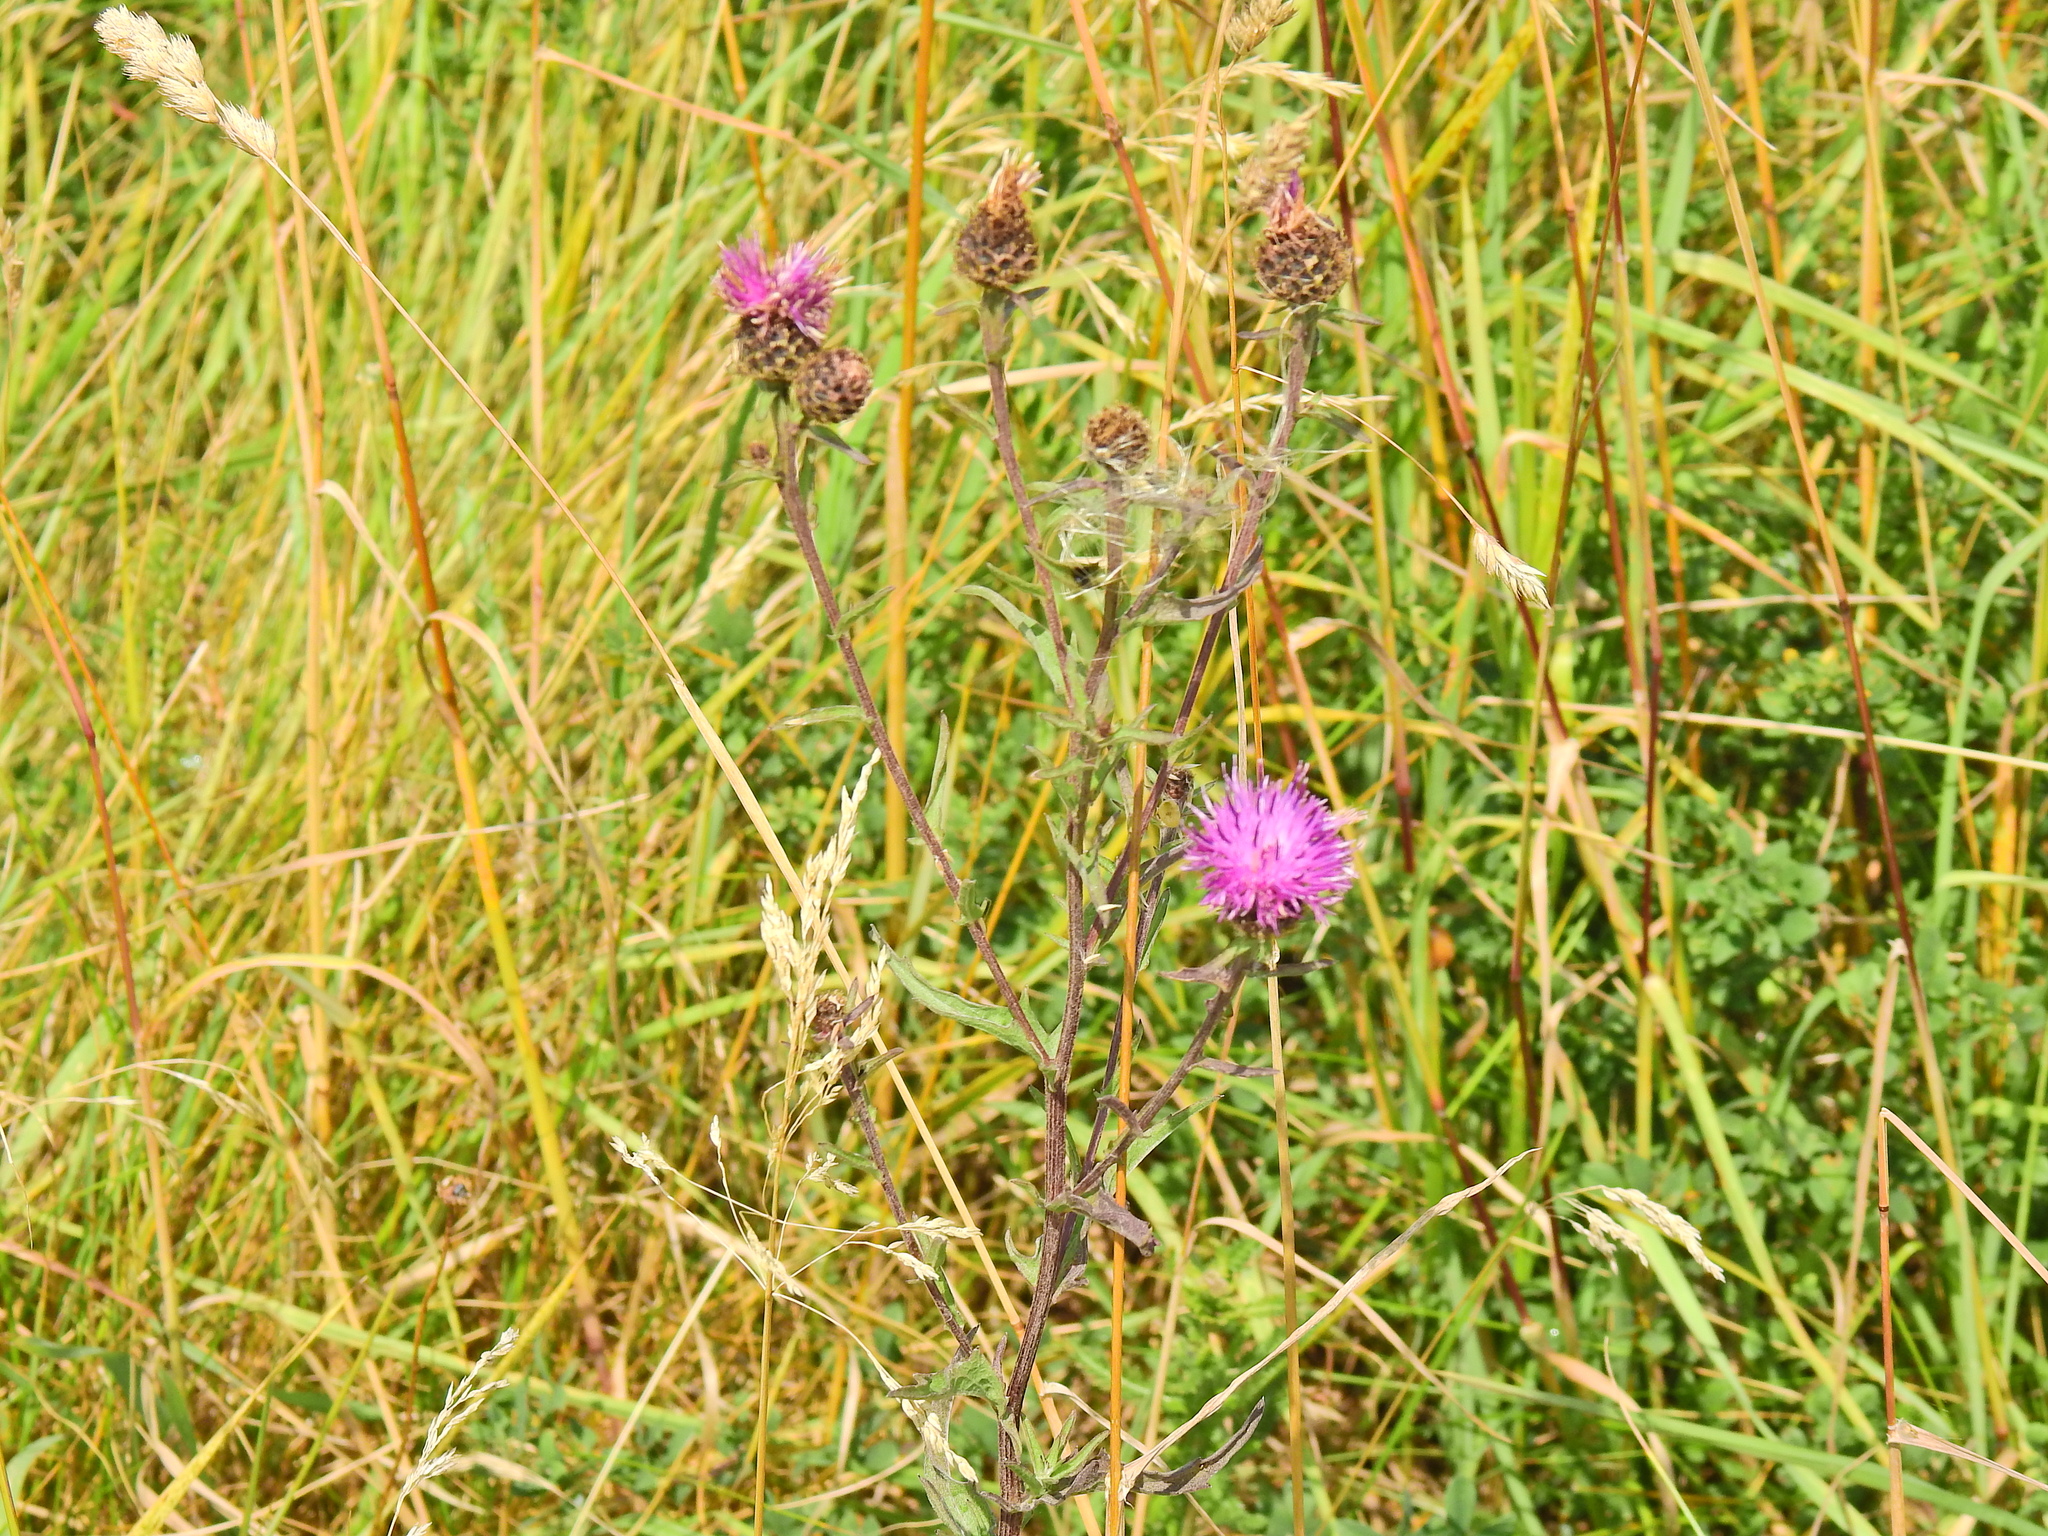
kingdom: Plantae
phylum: Tracheophyta
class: Magnoliopsida
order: Asterales
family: Asteraceae
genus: Centaurea
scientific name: Centaurea nigra
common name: Lesser knapweed
